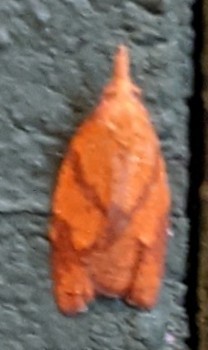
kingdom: Animalia
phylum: Arthropoda
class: Insecta
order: Lepidoptera
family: Tortricidae
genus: Cenopis
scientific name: Cenopis reticulatana
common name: Reticulated fruitworm moth
